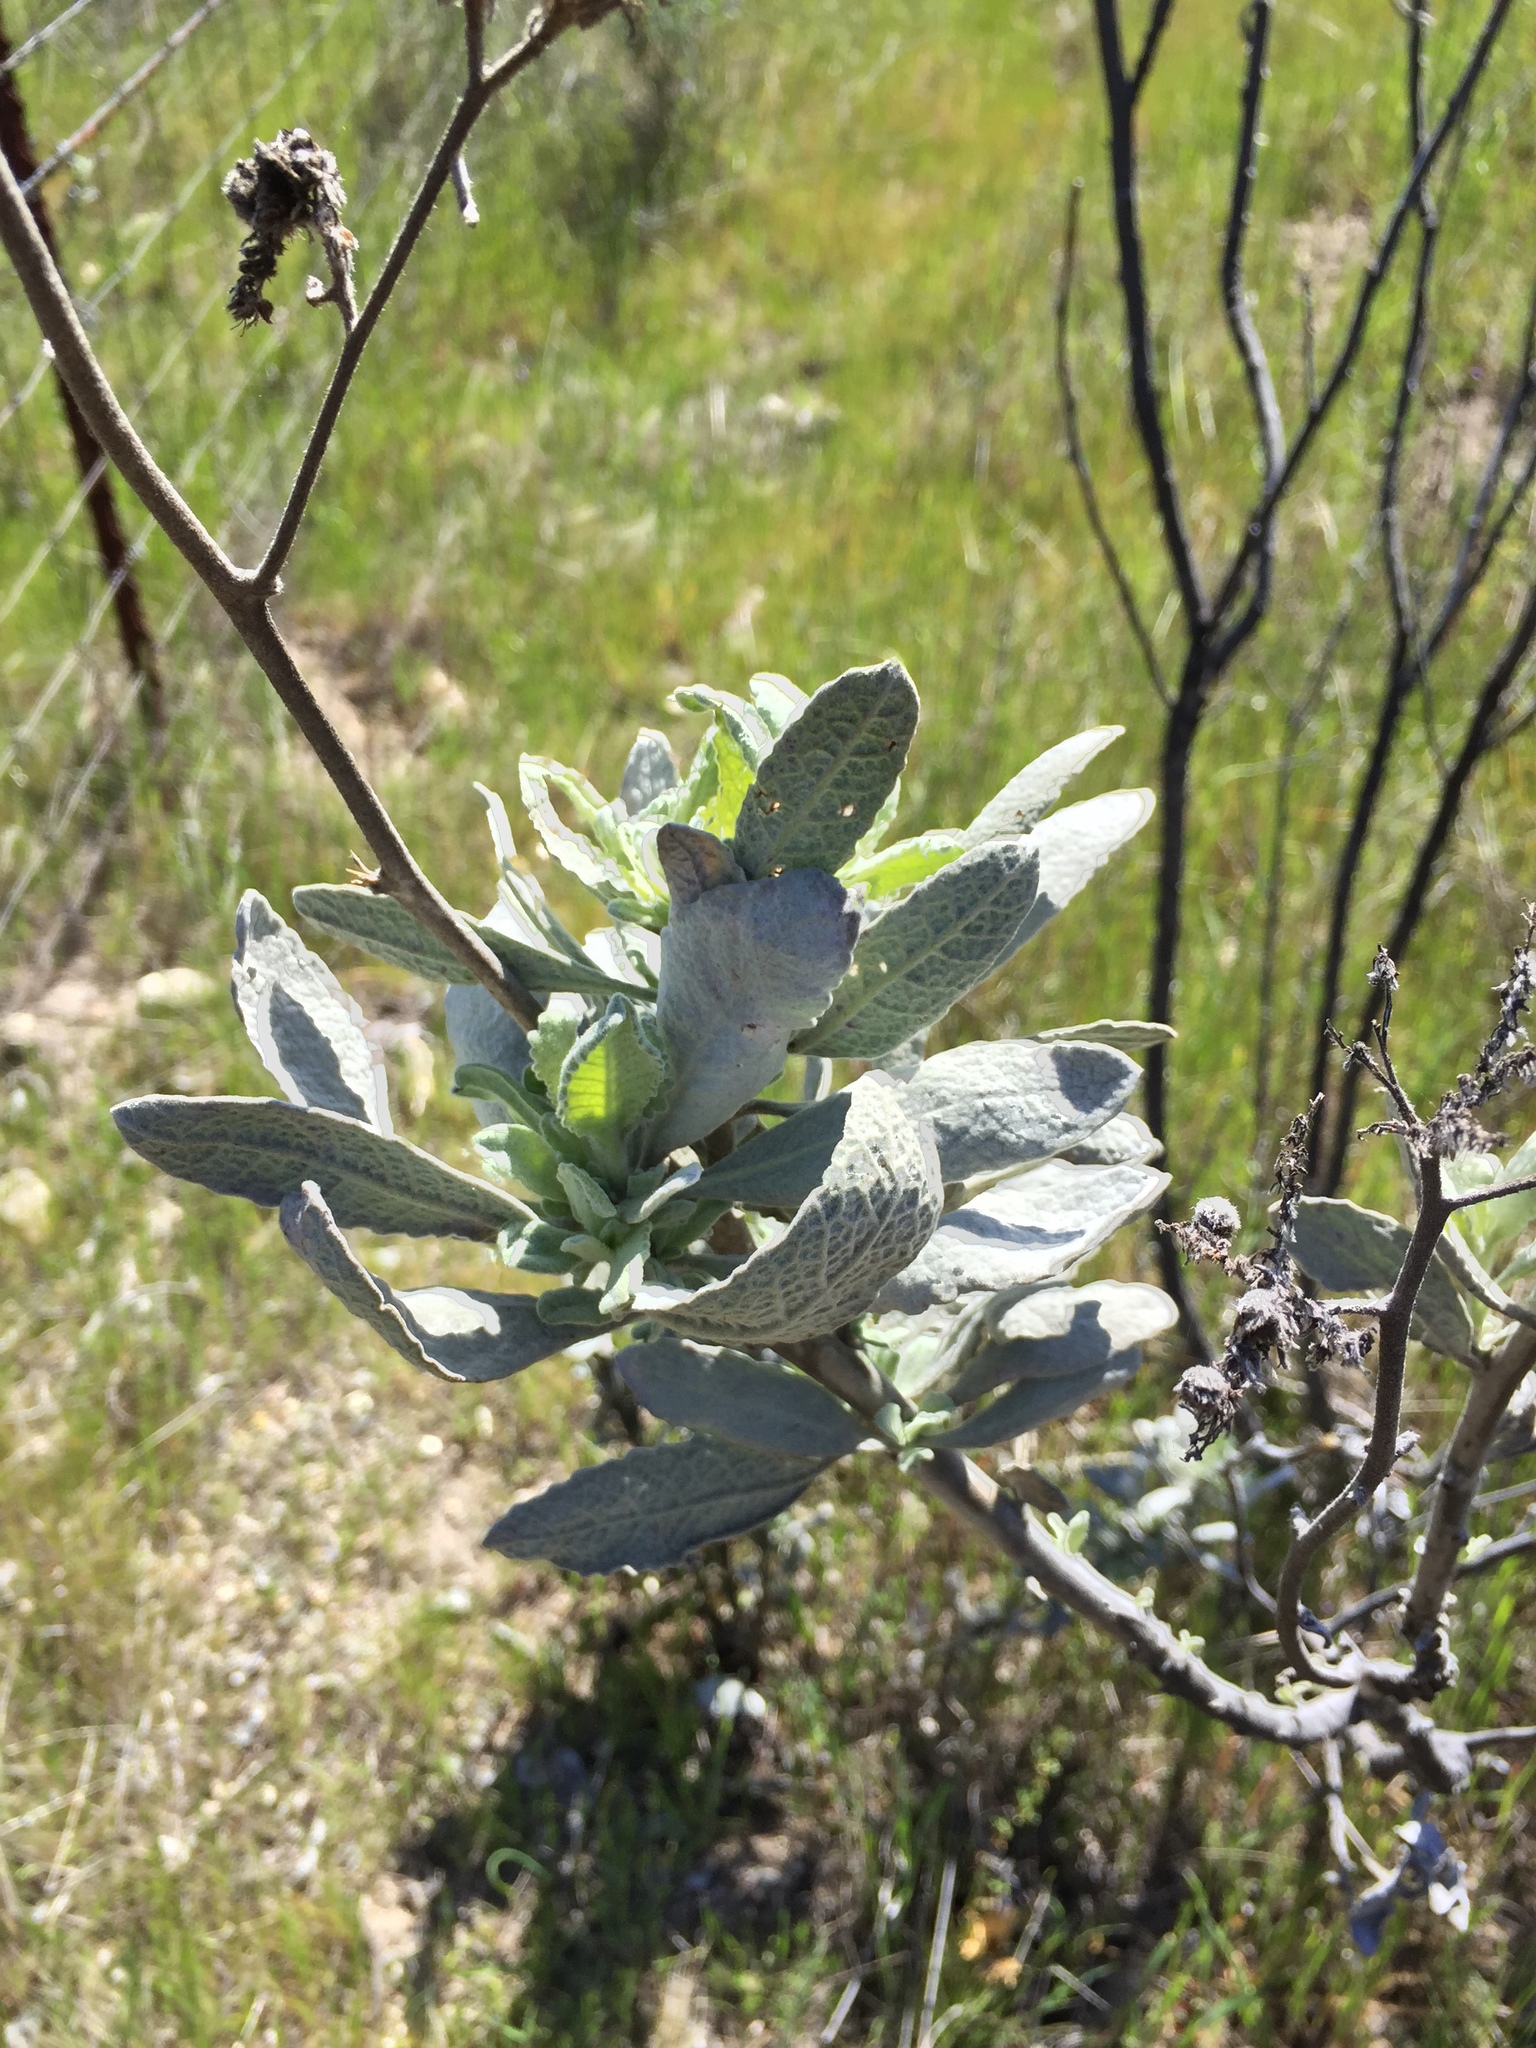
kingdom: Plantae
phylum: Tracheophyta
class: Magnoliopsida
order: Boraginales
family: Namaceae
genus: Eriodictyon
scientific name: Eriodictyon tomentosum
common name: Woolly yerba-santa
